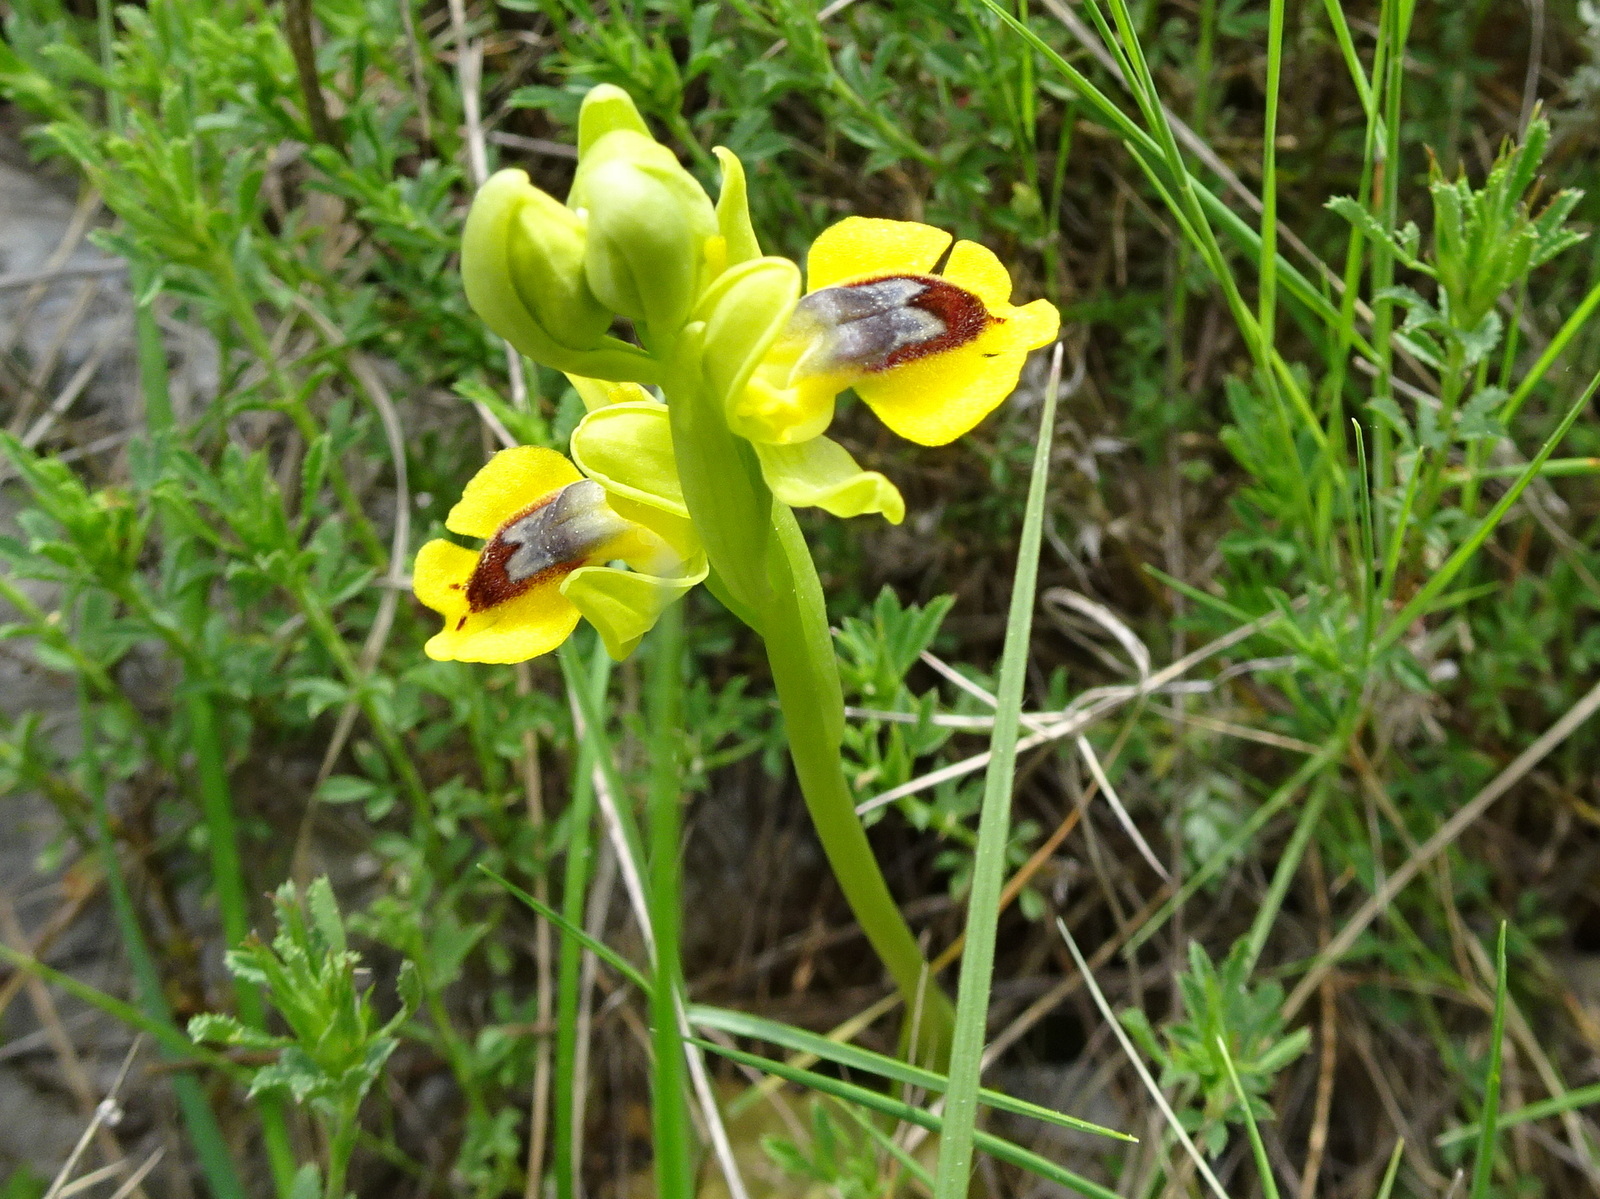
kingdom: Plantae
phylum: Tracheophyta
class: Liliopsida
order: Asparagales
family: Orchidaceae
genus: Ophrys
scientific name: Ophrys lutea
